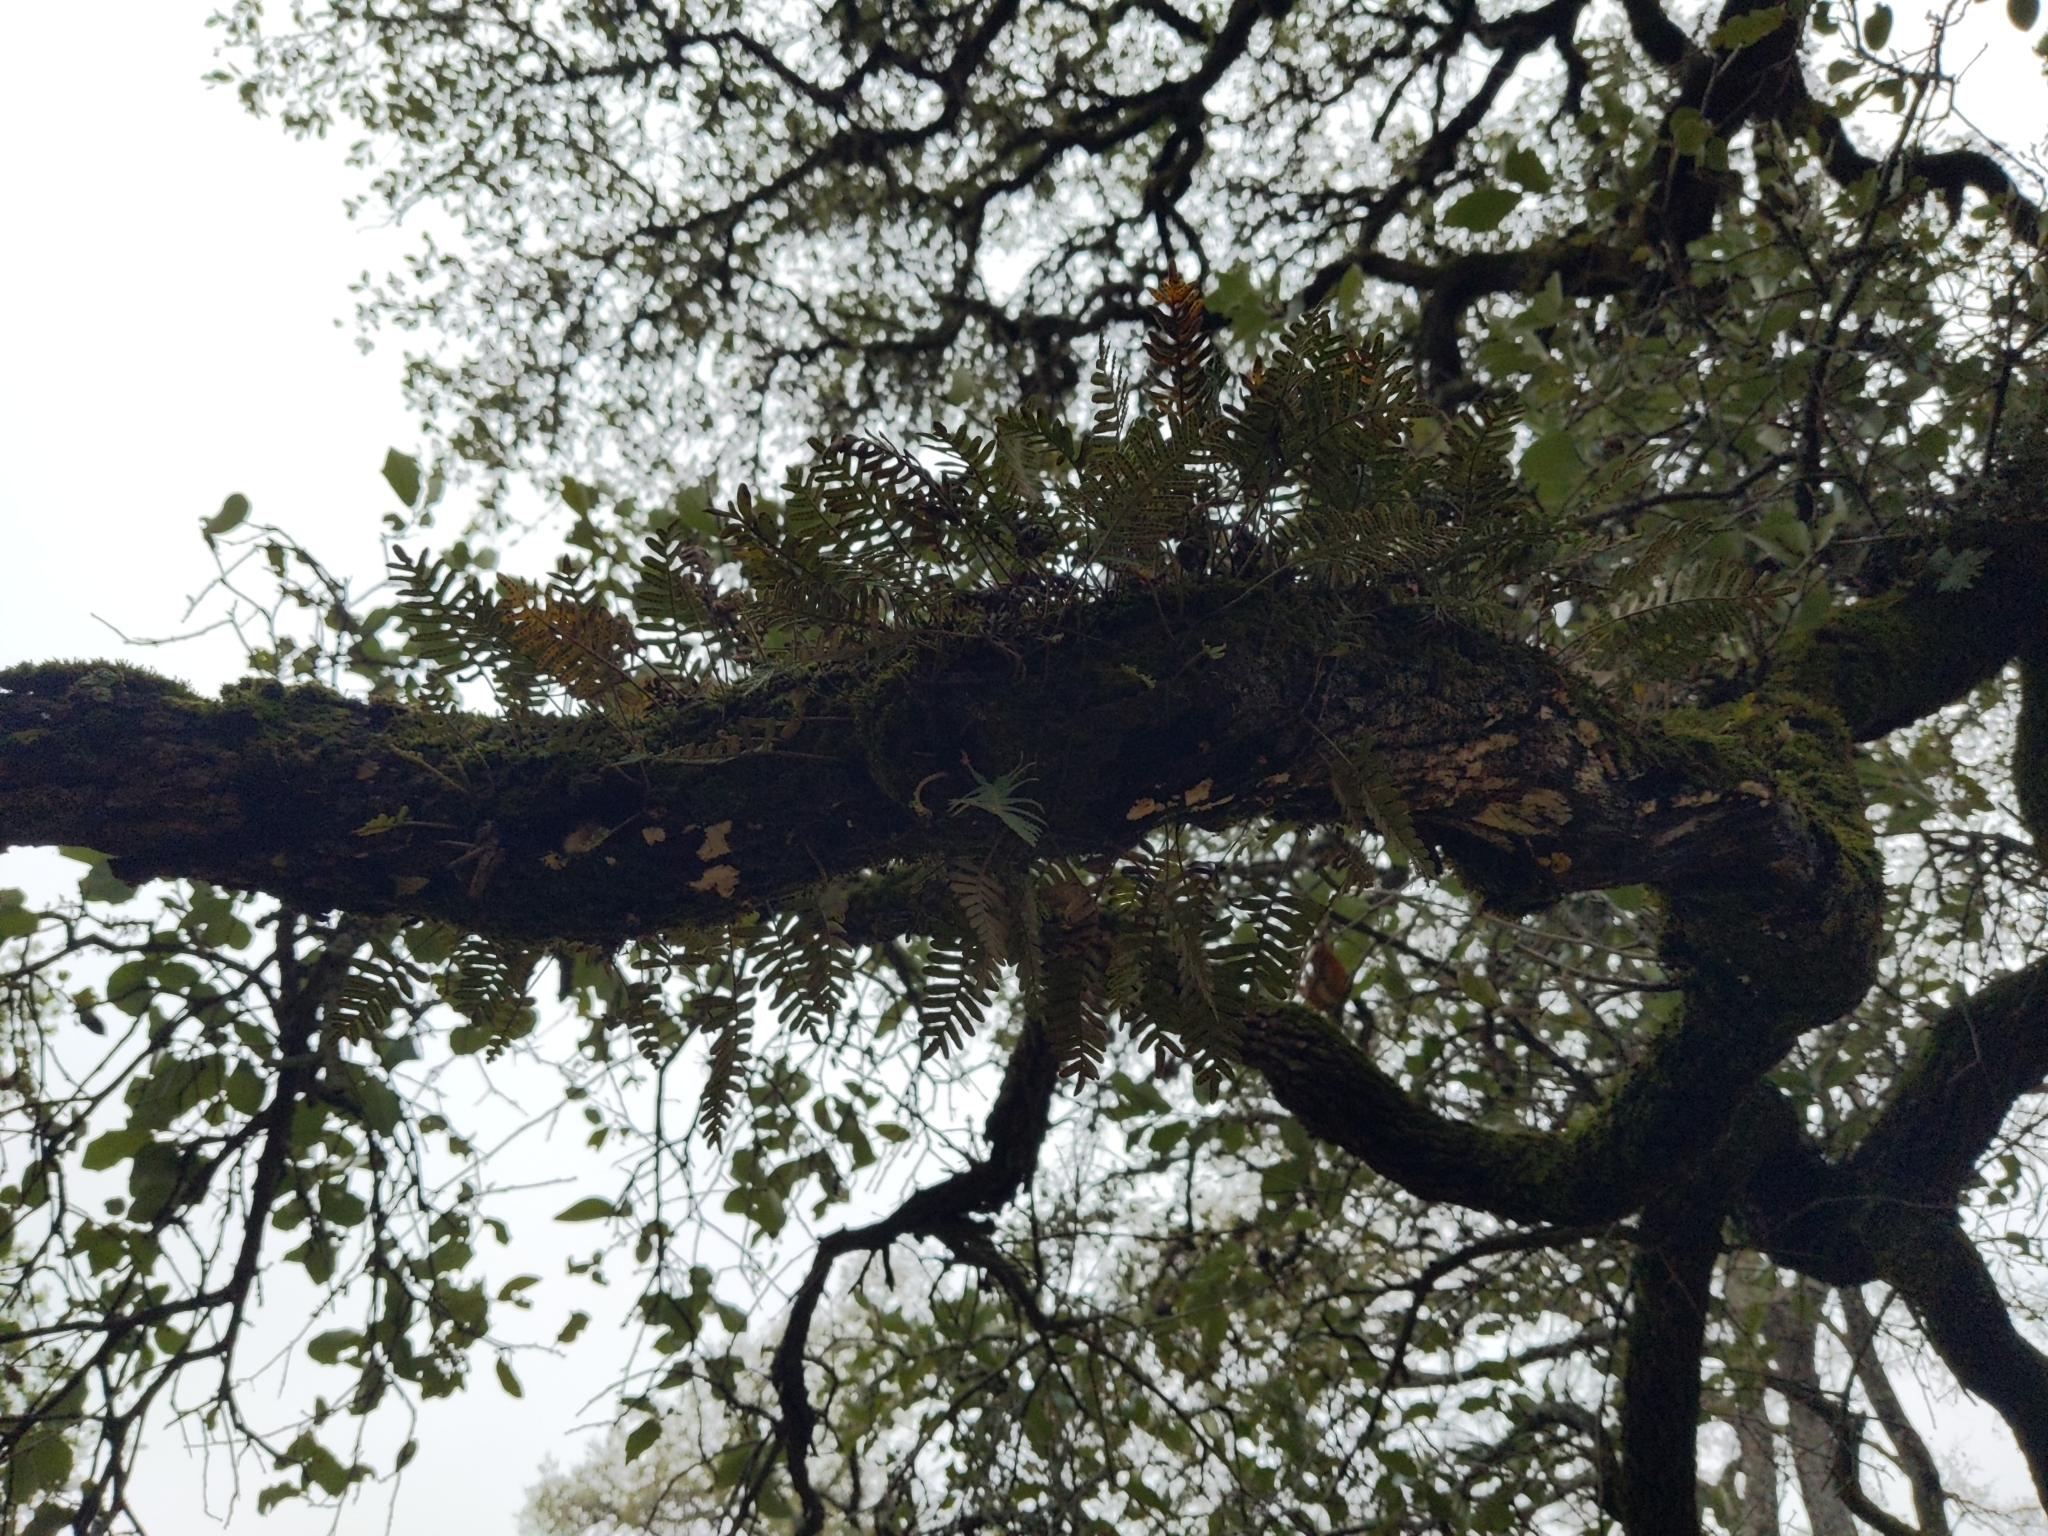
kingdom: Plantae
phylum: Tracheophyta
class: Polypodiopsida
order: Polypodiales
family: Polypodiaceae
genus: Pleopeltis
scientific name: Pleopeltis michauxiana
